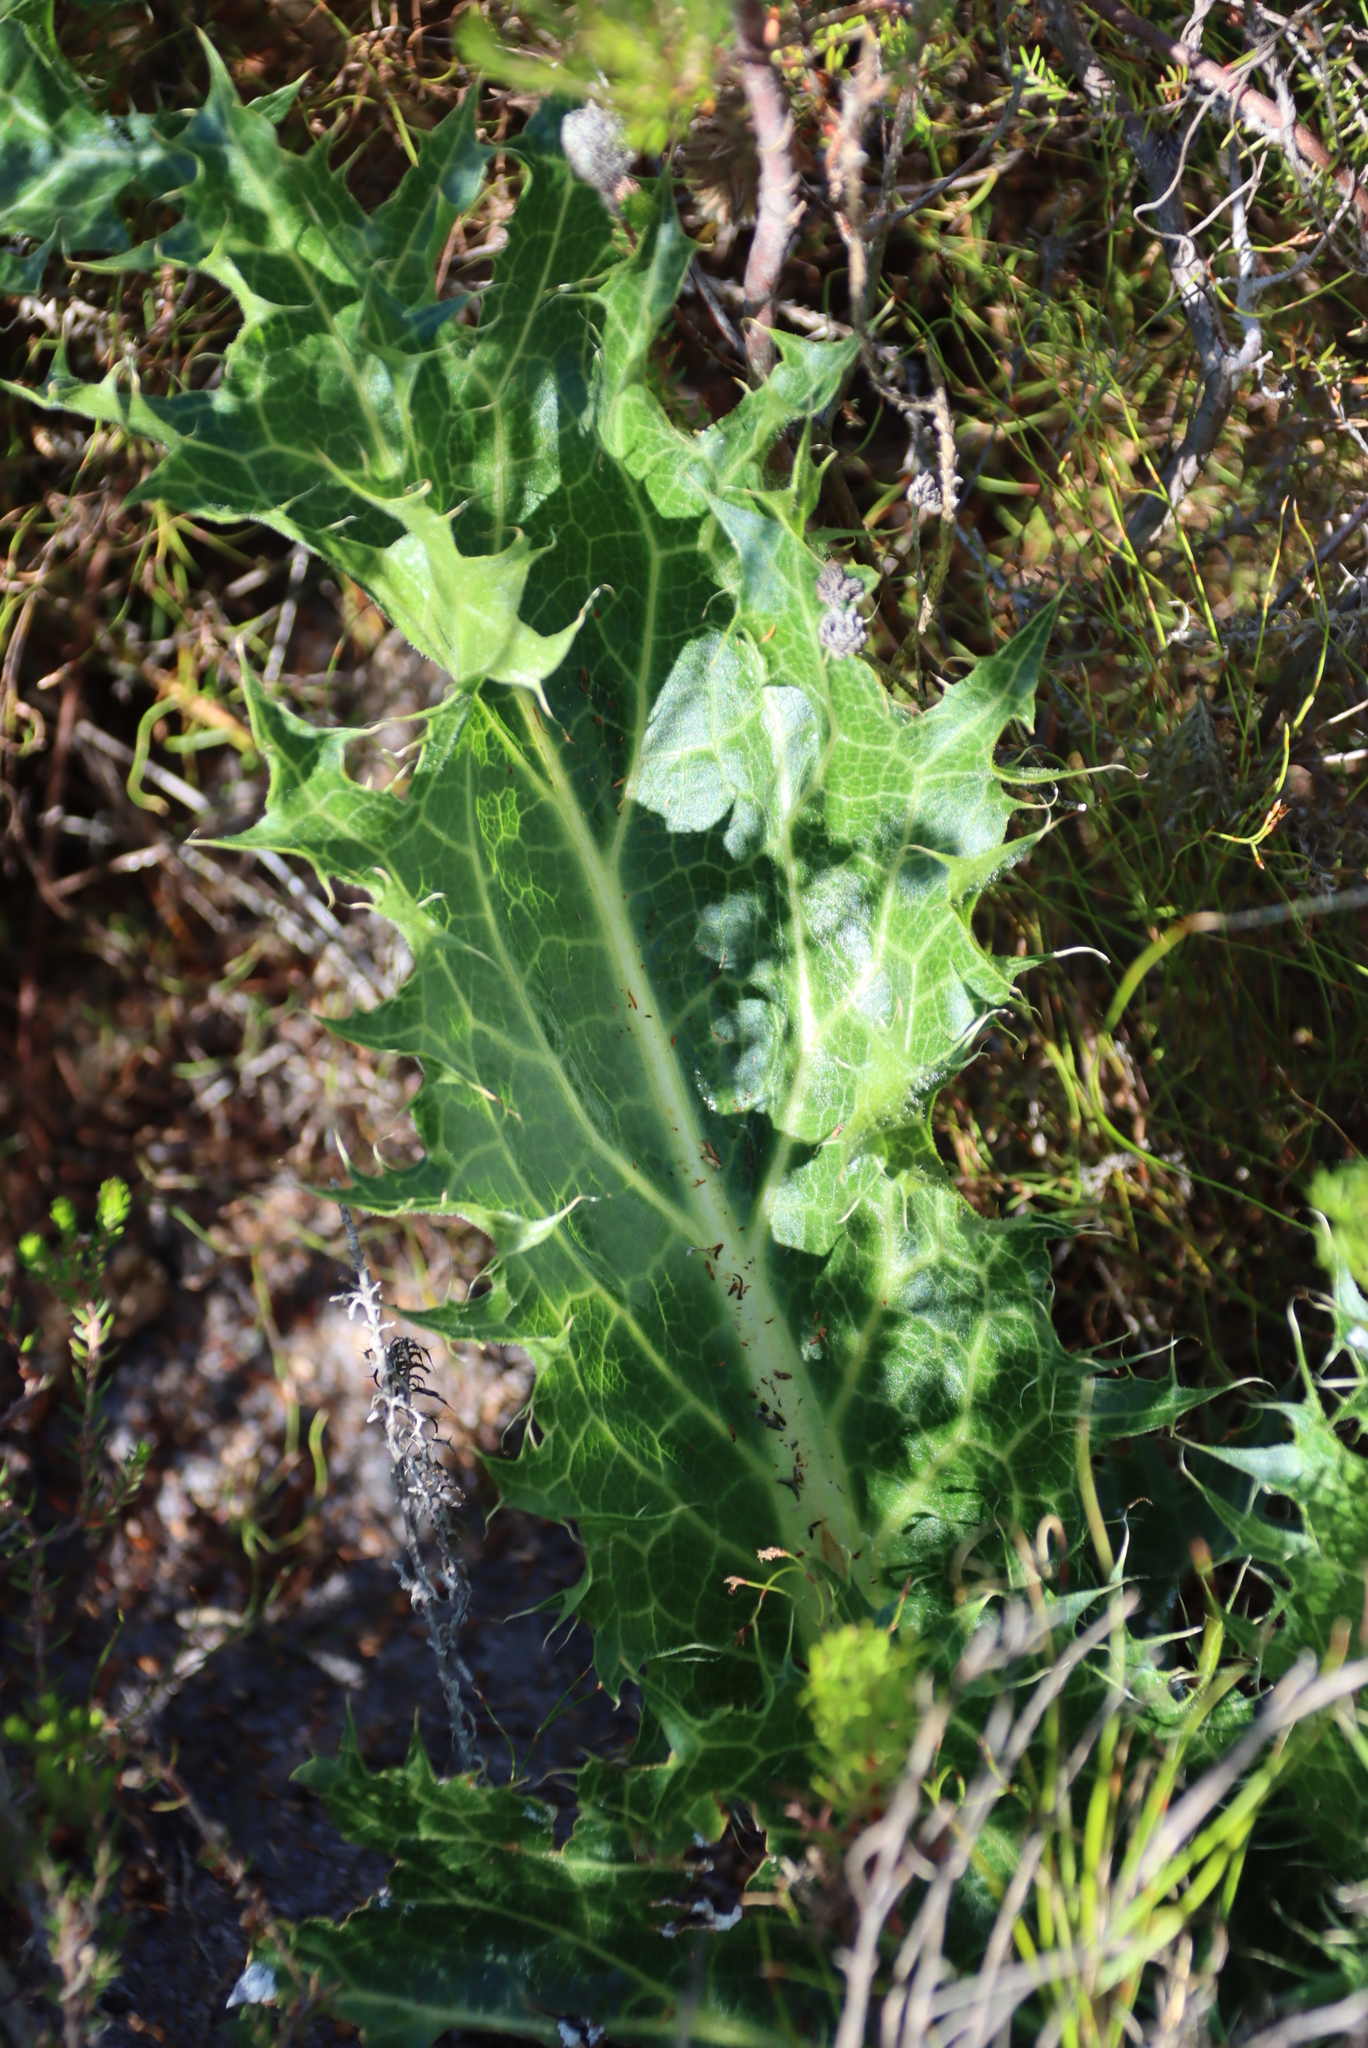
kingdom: Plantae
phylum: Tracheophyta
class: Magnoliopsida
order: Apiales
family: Apiaceae
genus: Lichtensteinia
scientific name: Lichtensteinia lacera
